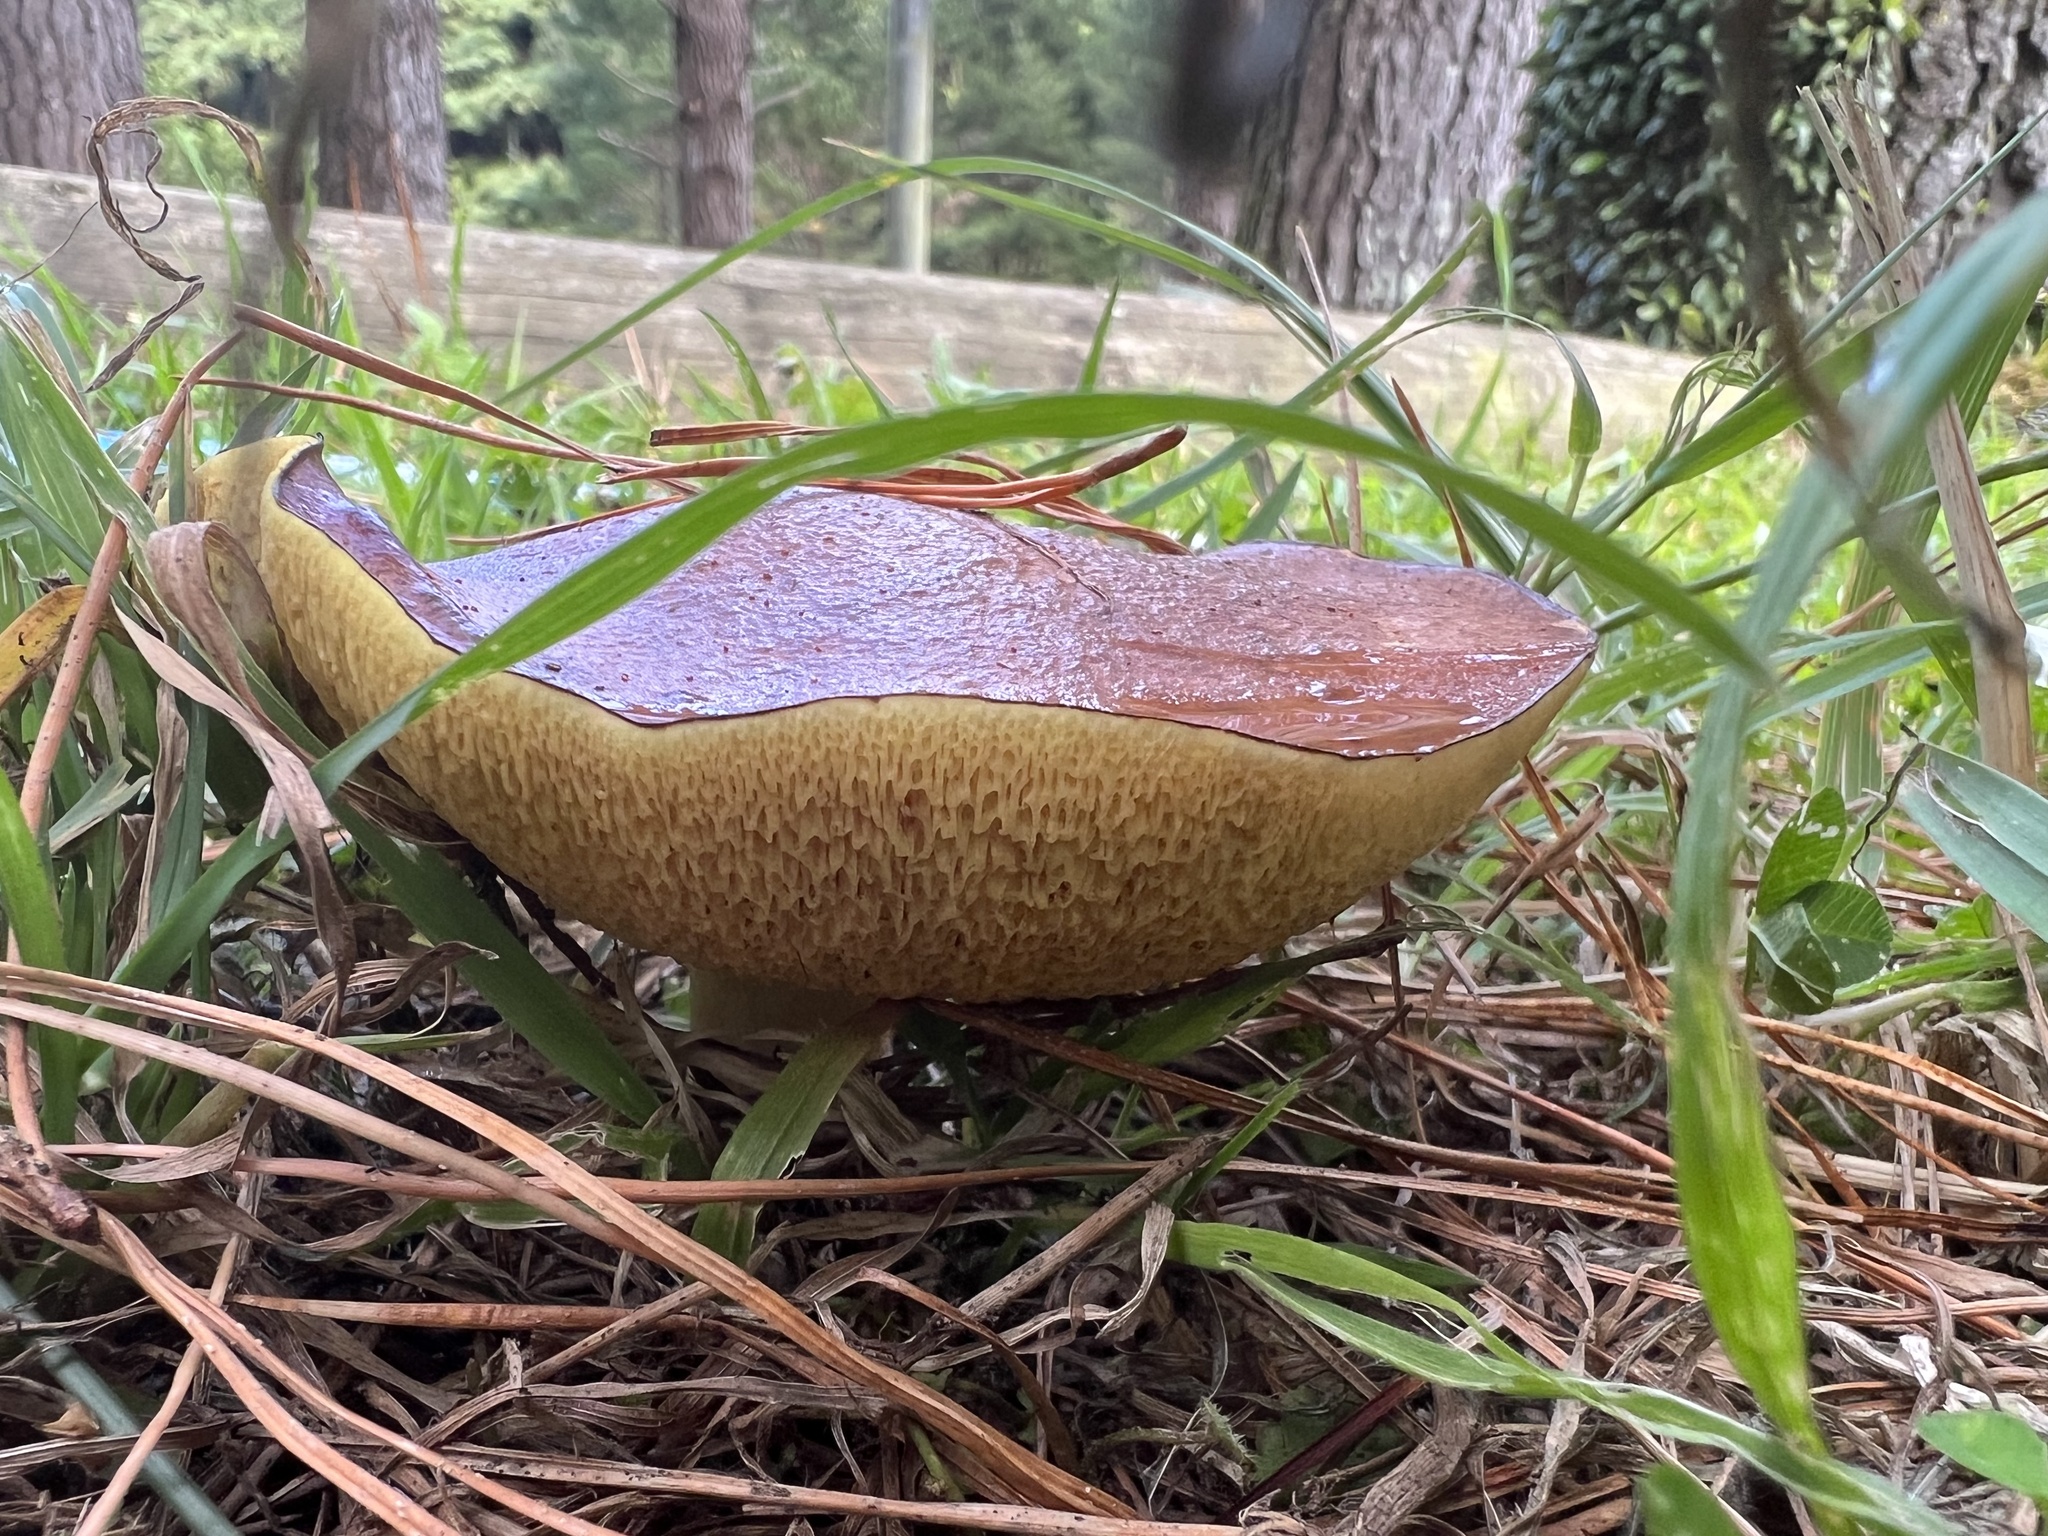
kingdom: Fungi
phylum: Basidiomycota
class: Agaricomycetes
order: Boletales
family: Suillaceae
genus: Suillus
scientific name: Suillus granulatus
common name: Weeping bolete
